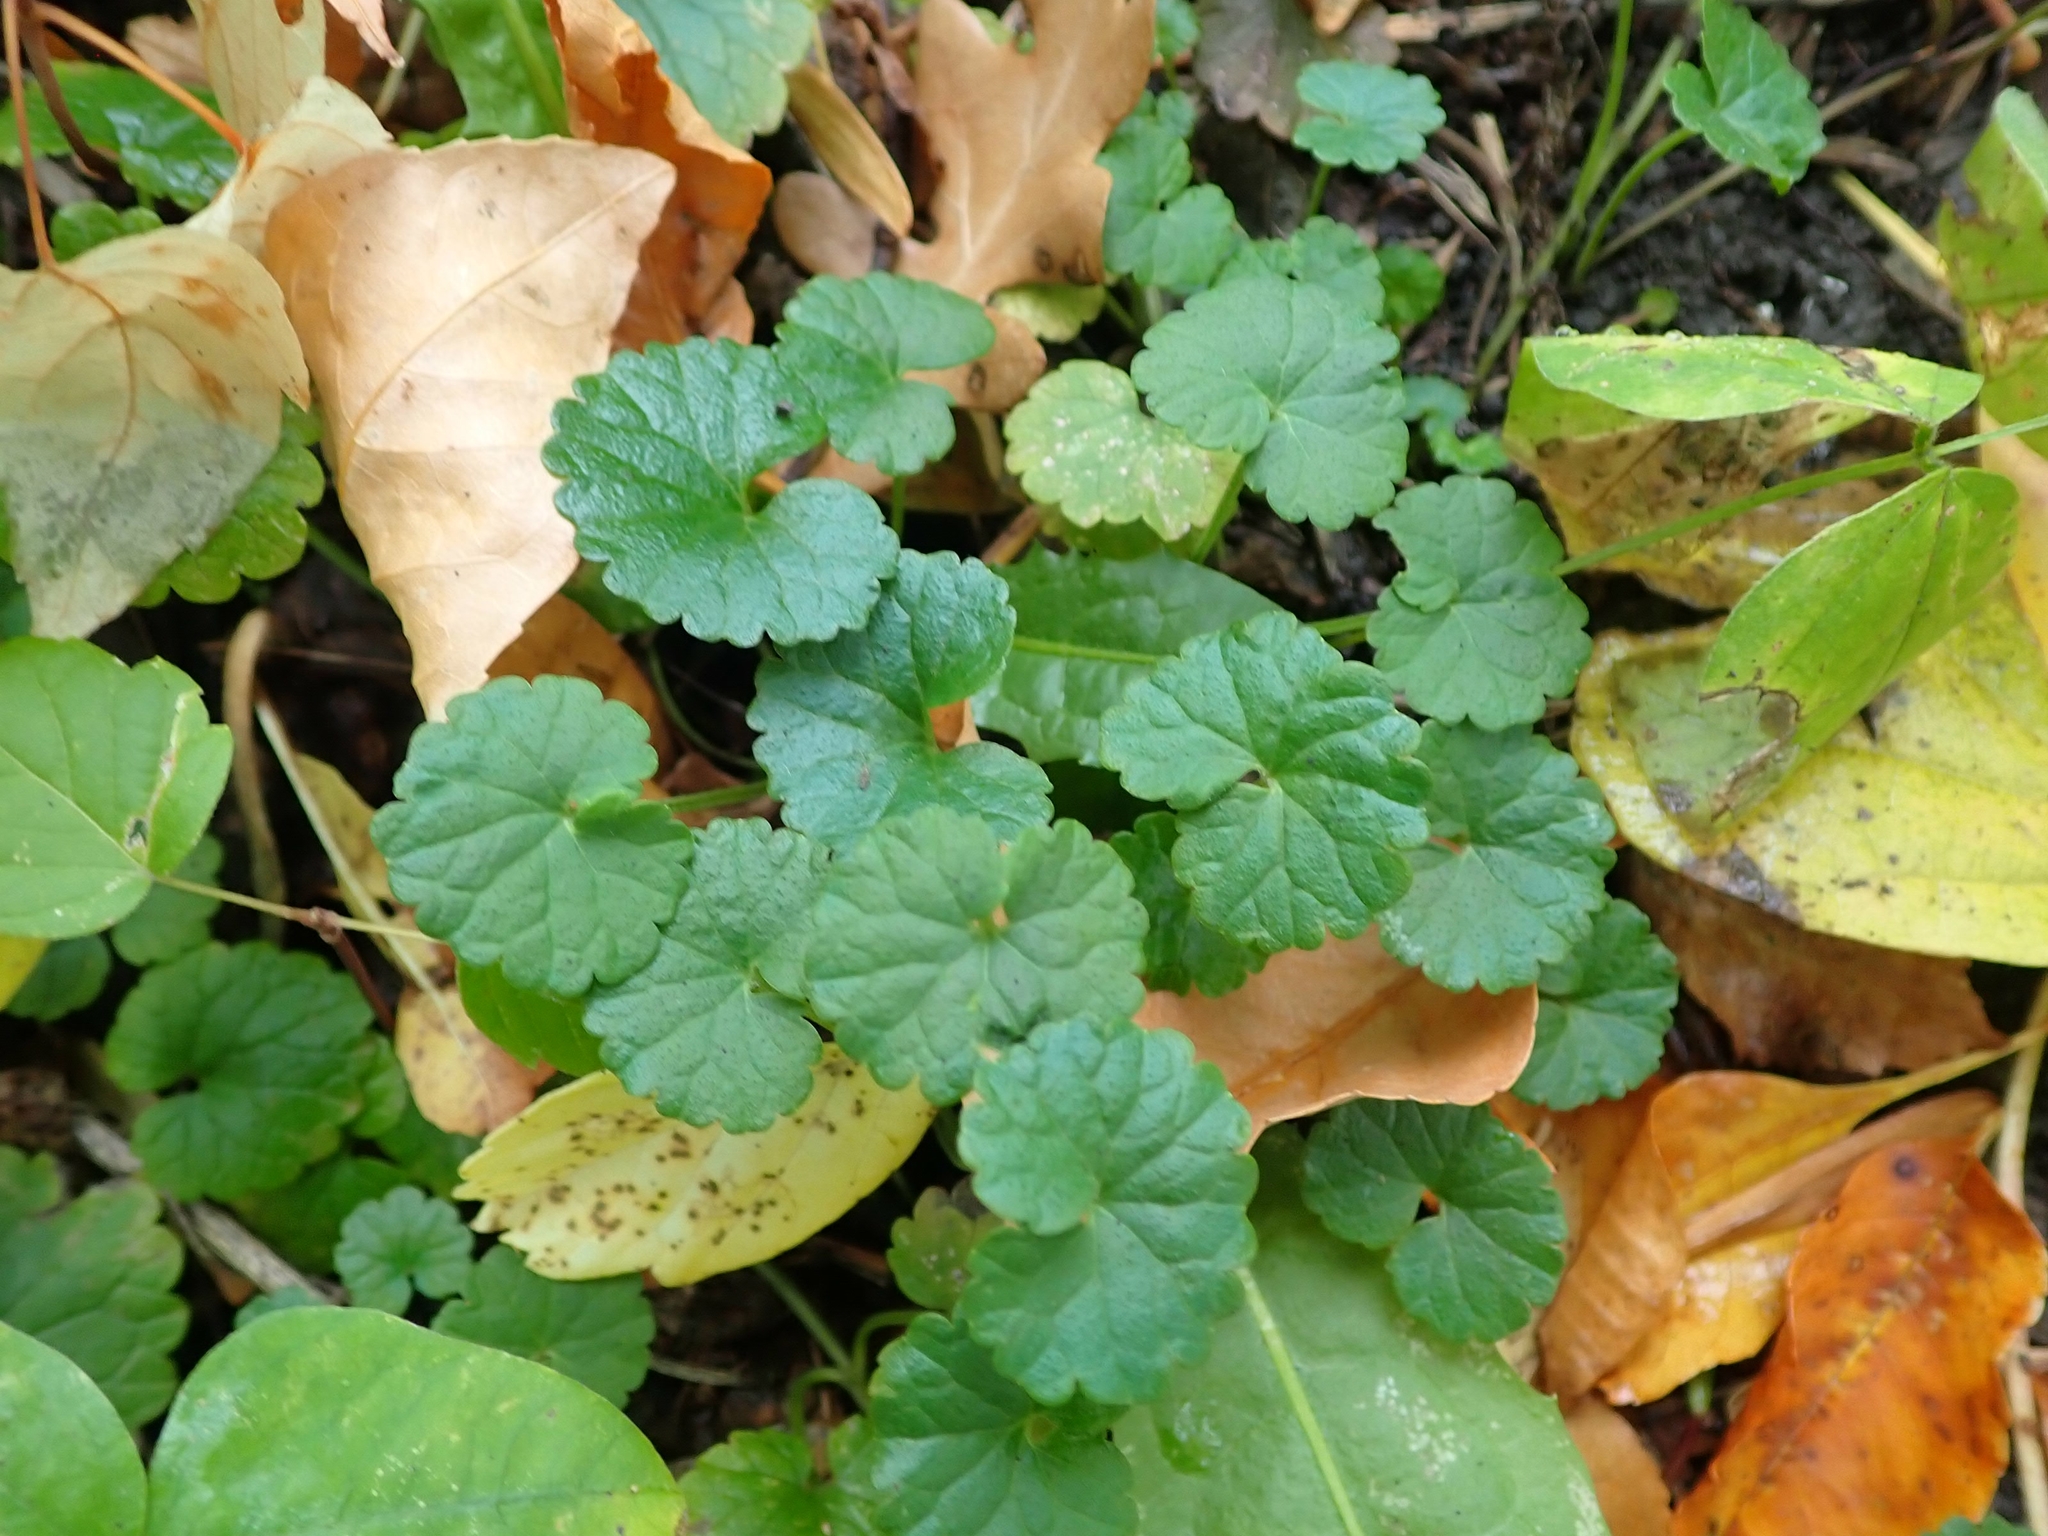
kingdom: Plantae
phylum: Tracheophyta
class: Magnoliopsida
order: Lamiales
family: Lamiaceae
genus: Glechoma
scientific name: Glechoma hederacea
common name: Ground ivy
